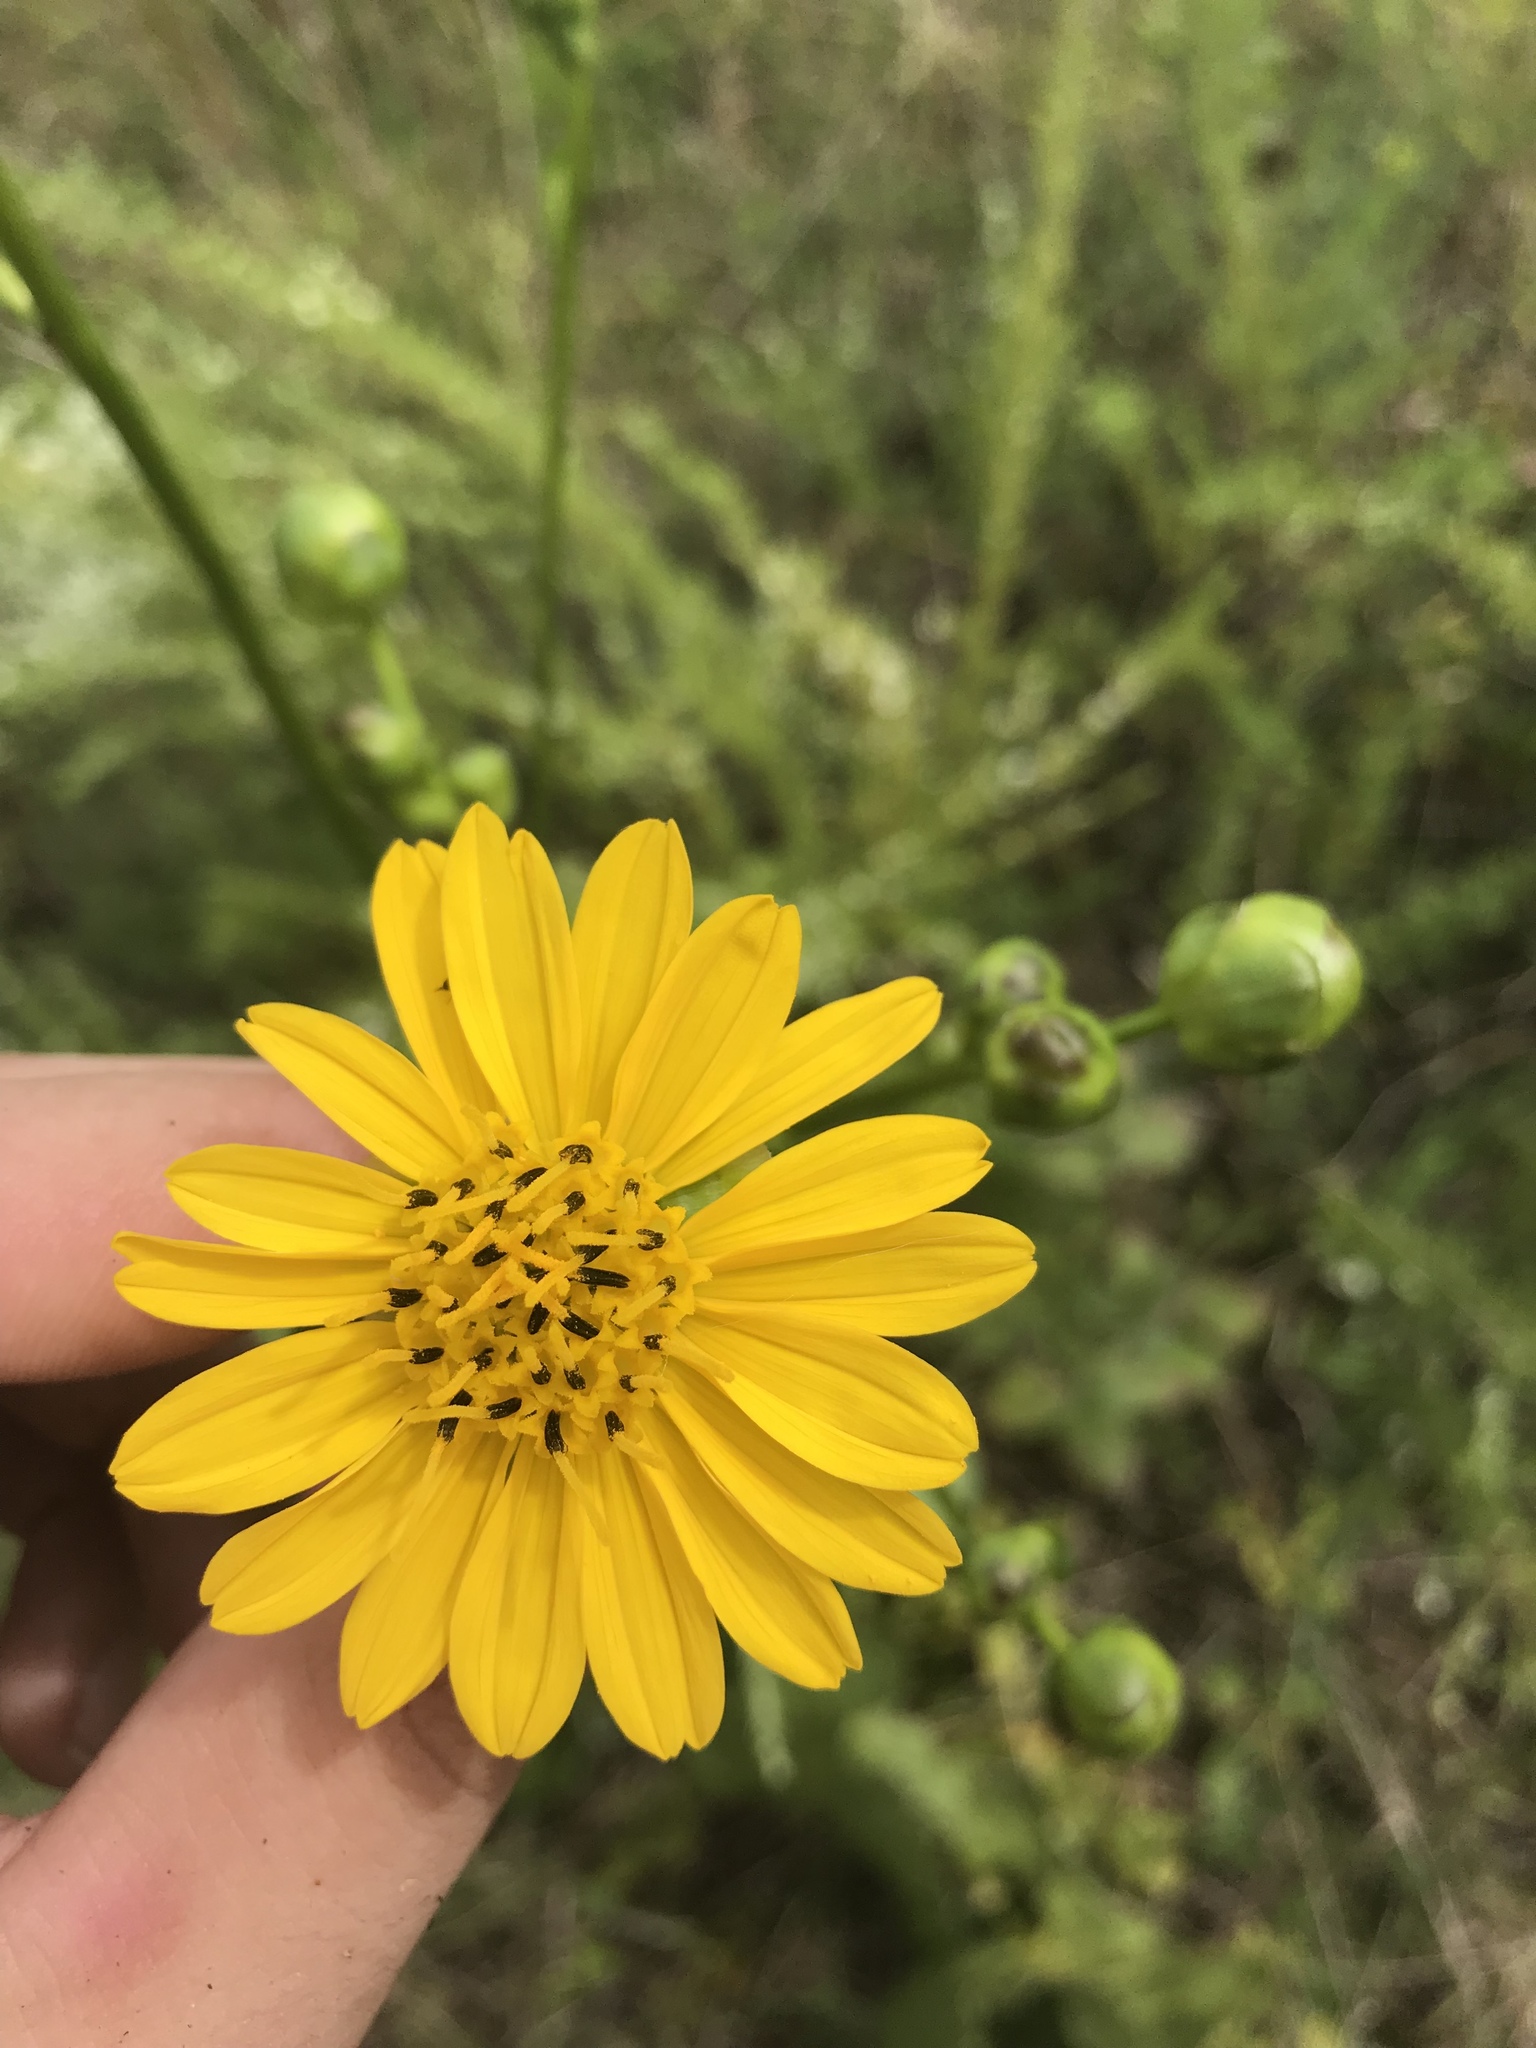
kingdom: Plantae
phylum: Tracheophyta
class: Magnoliopsida
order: Asterales
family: Asteraceae
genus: Silphium
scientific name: Silphium terebinthinaceum
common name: Basal-leaf rosinweed
